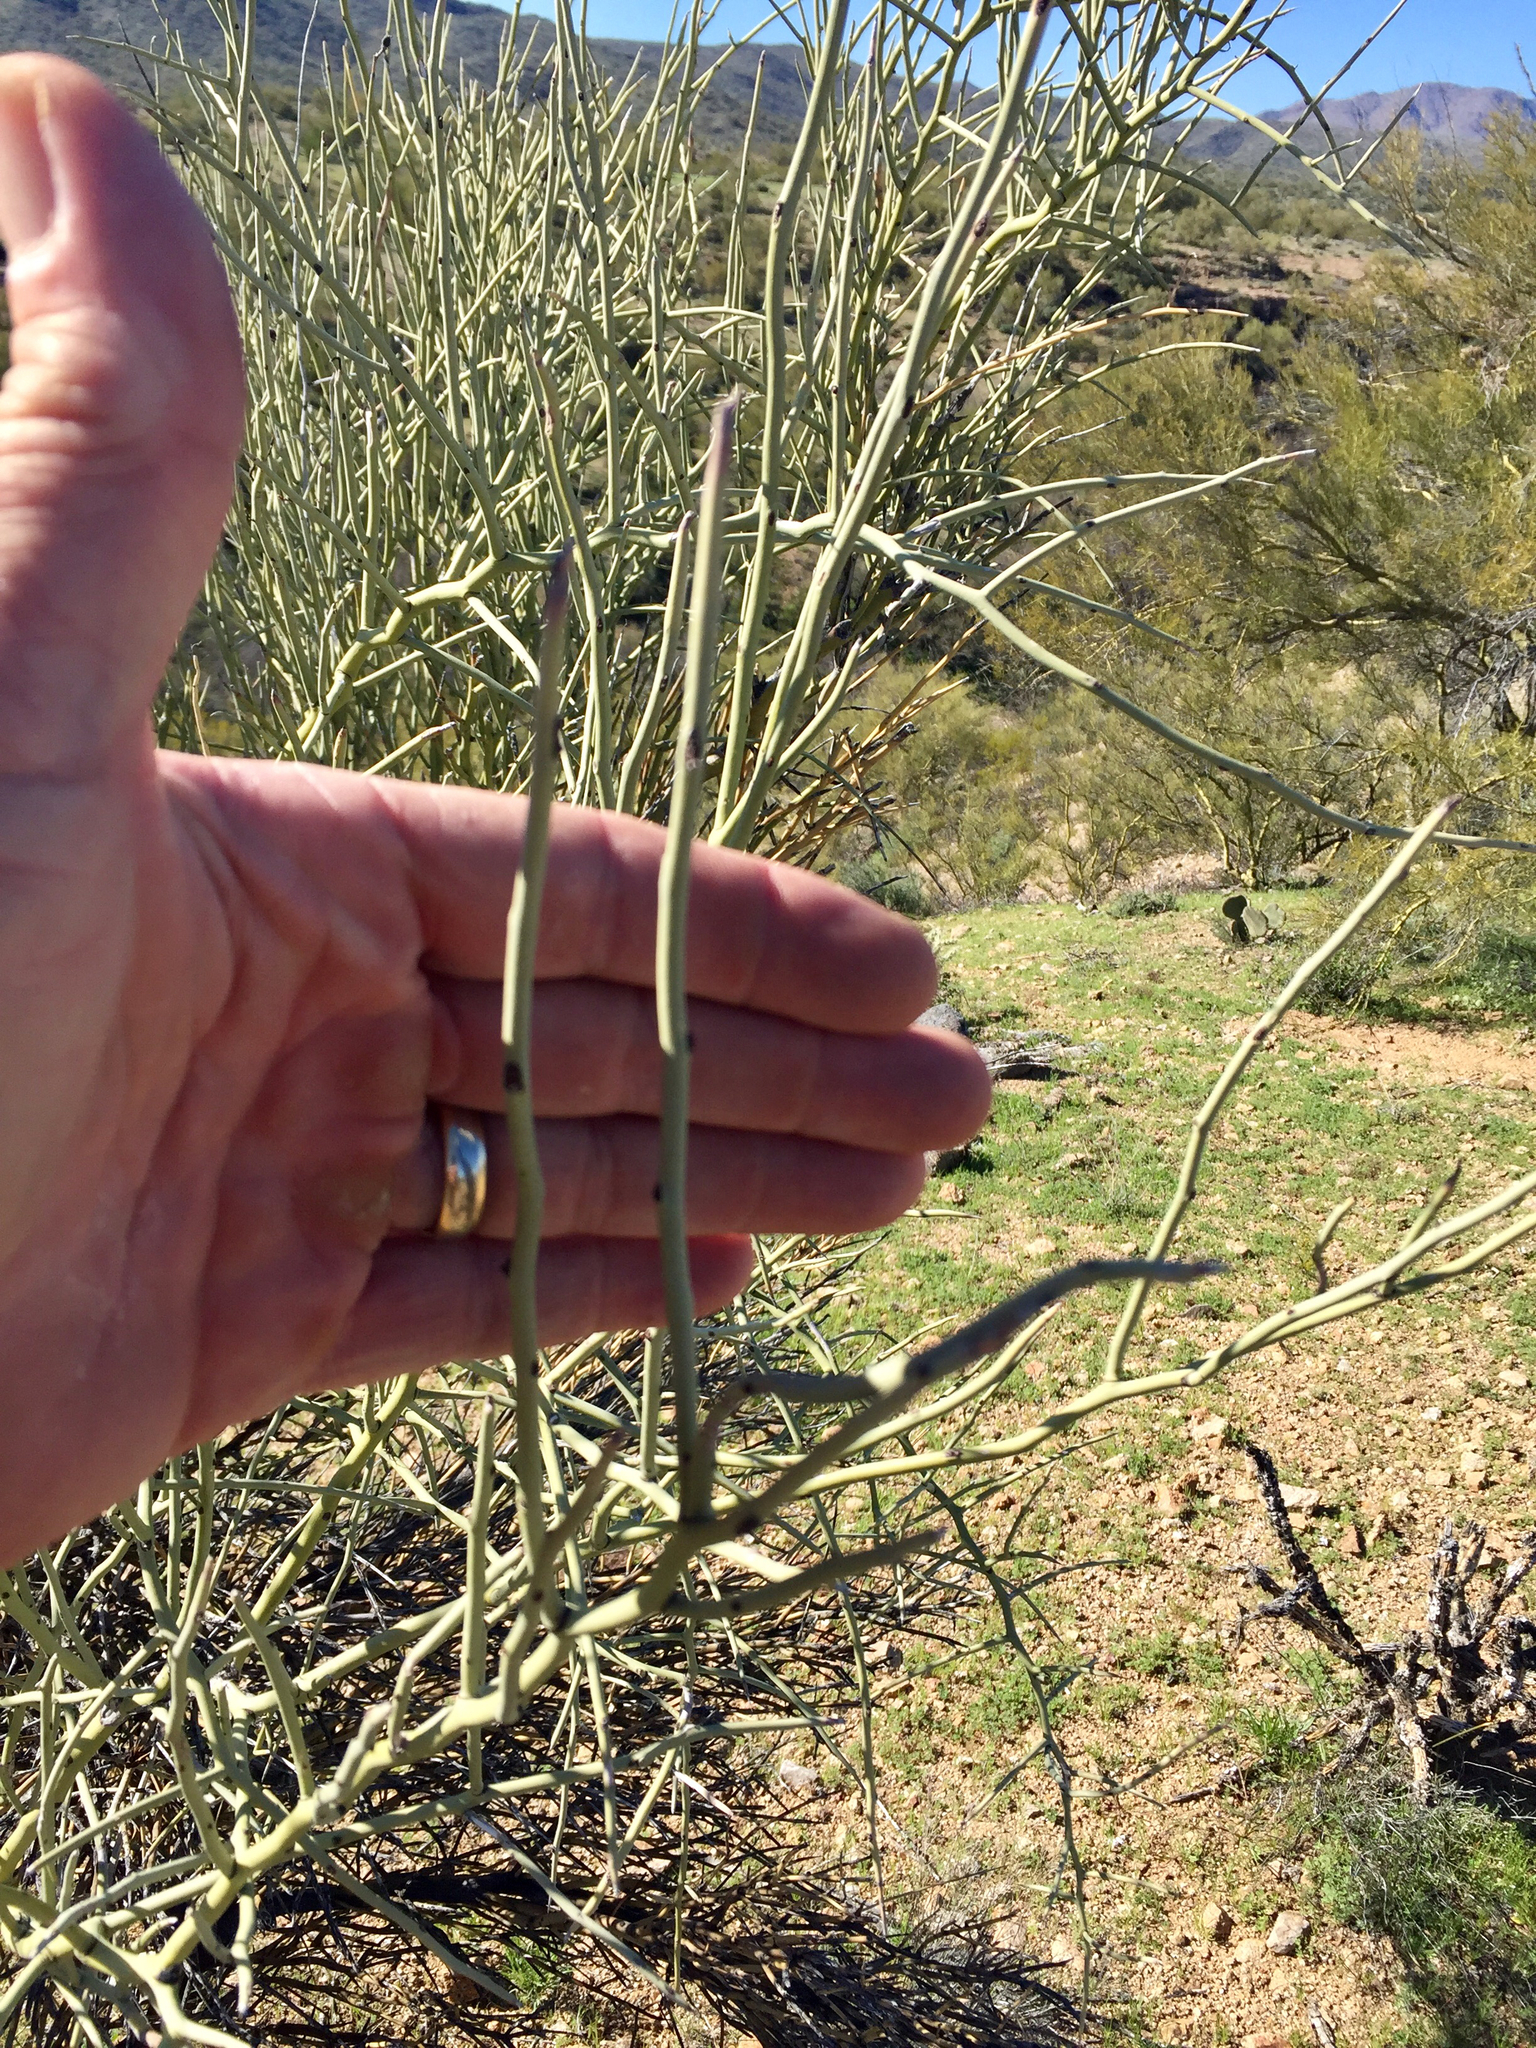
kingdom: Plantae
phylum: Tracheophyta
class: Magnoliopsida
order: Celastrales
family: Celastraceae
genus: Canotia
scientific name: Canotia holacantha
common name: Crucifixion thorns
